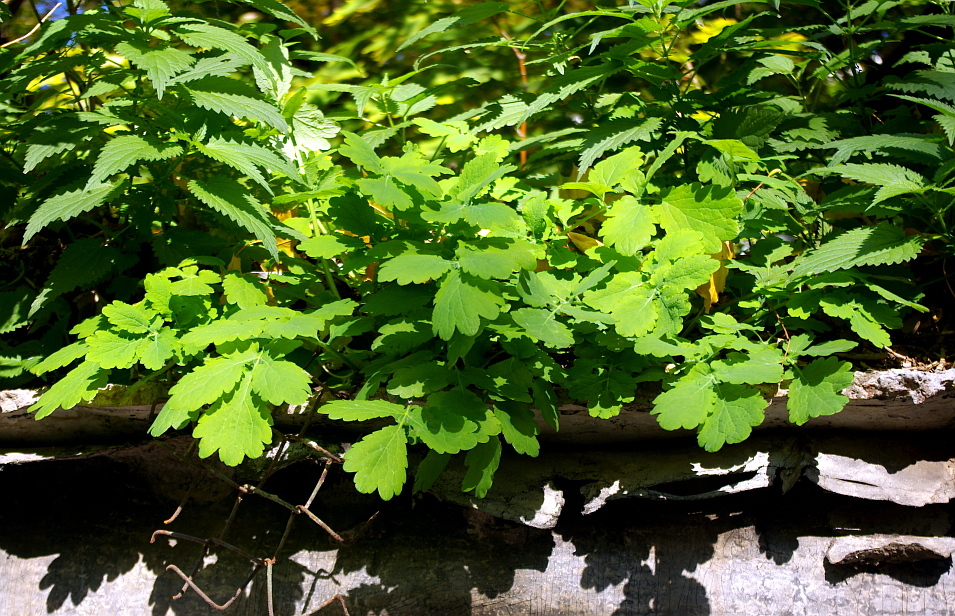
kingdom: Plantae
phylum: Tracheophyta
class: Magnoliopsida
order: Ranunculales
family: Papaveraceae
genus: Chelidonium
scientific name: Chelidonium majus
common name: Greater celandine
